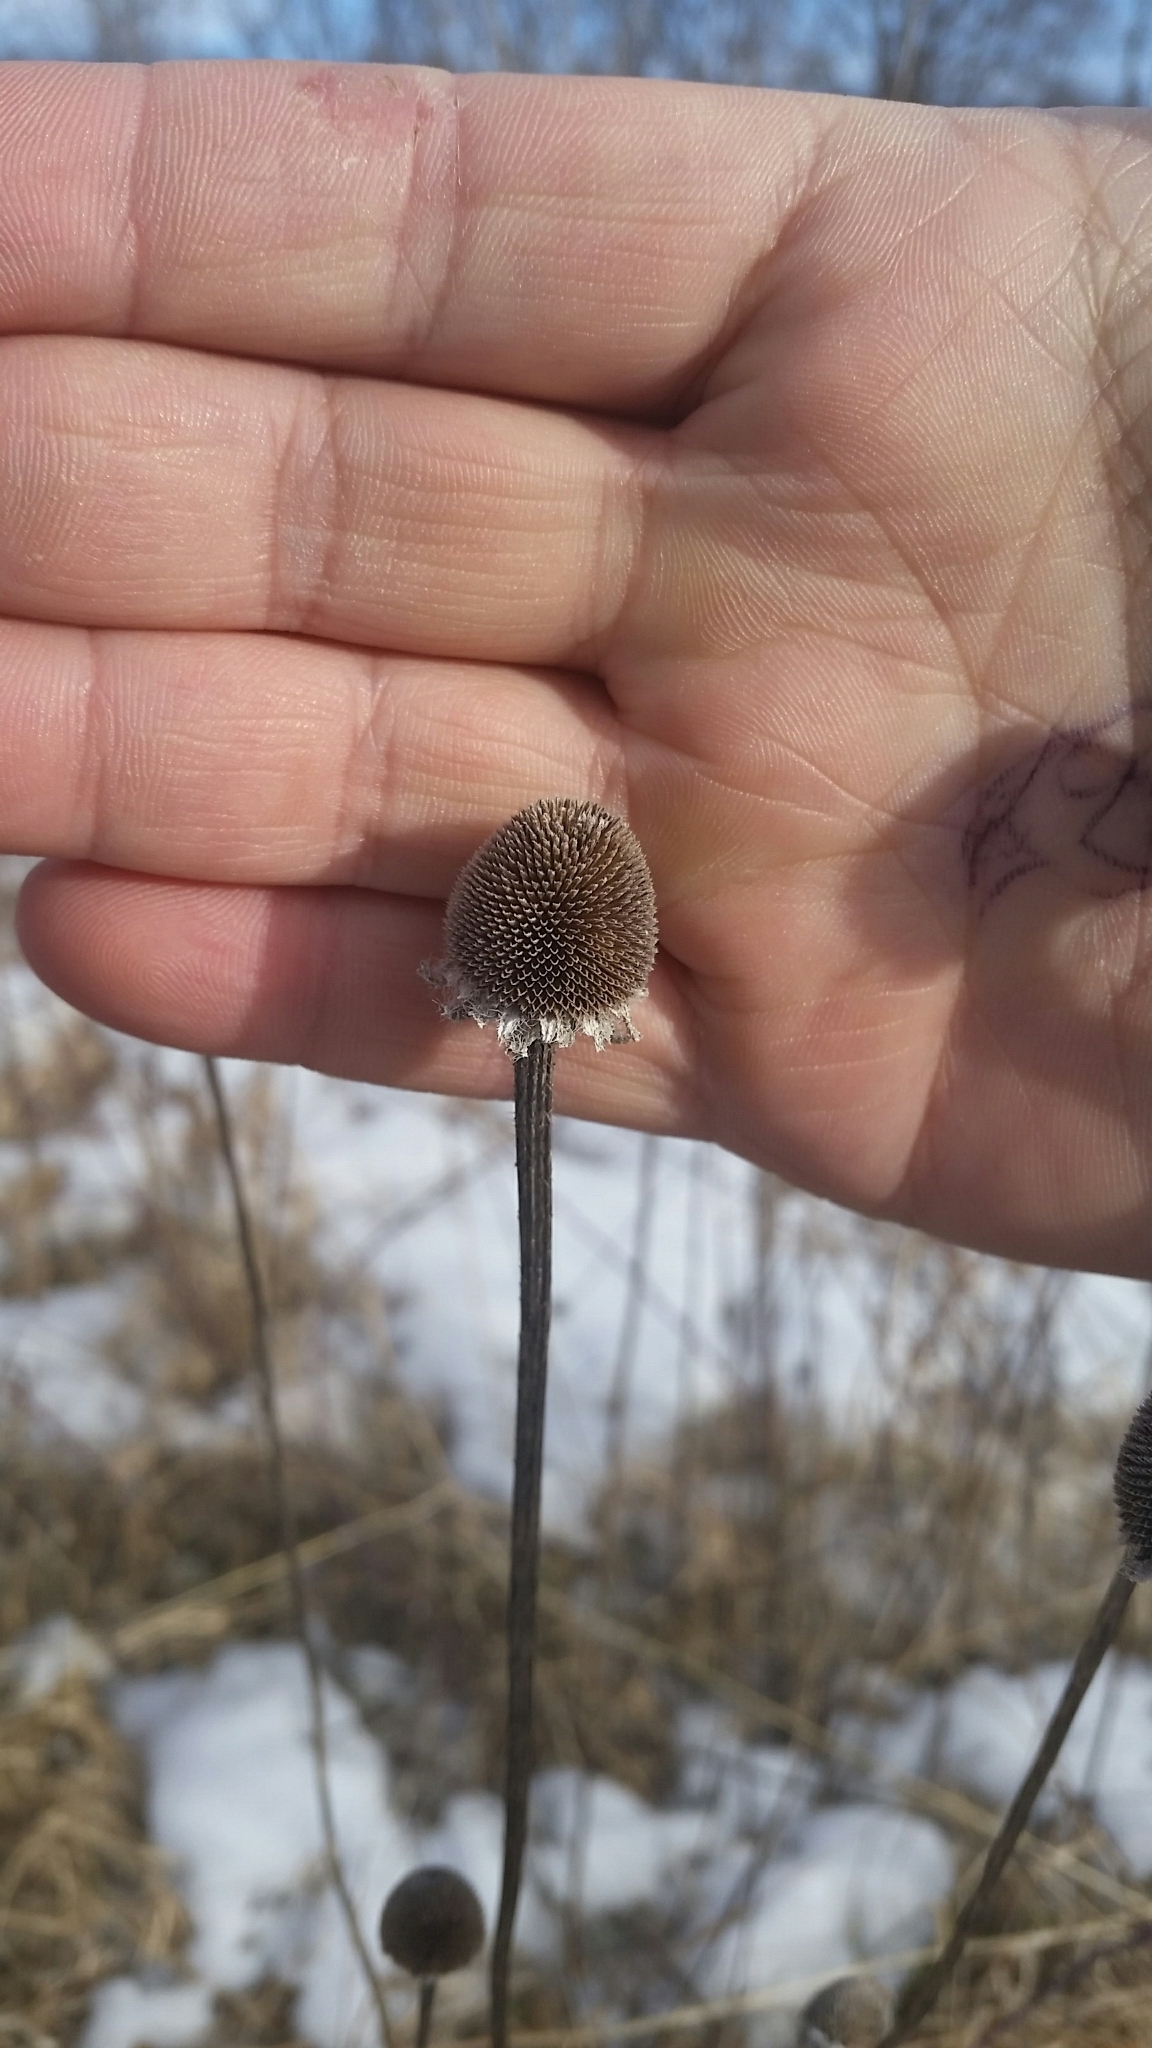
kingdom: Plantae
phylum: Tracheophyta
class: Magnoliopsida
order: Asterales
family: Asteraceae
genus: Rudbeckia
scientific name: Rudbeckia hirta
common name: Black-eyed-susan
